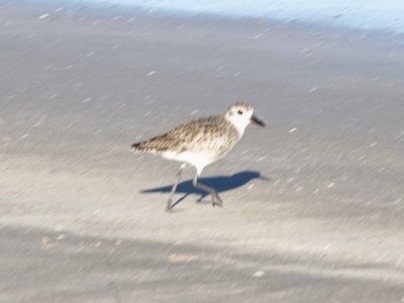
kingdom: Animalia
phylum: Chordata
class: Aves
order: Charadriiformes
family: Charadriidae
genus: Pluvialis
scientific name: Pluvialis squatarola
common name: Grey plover
